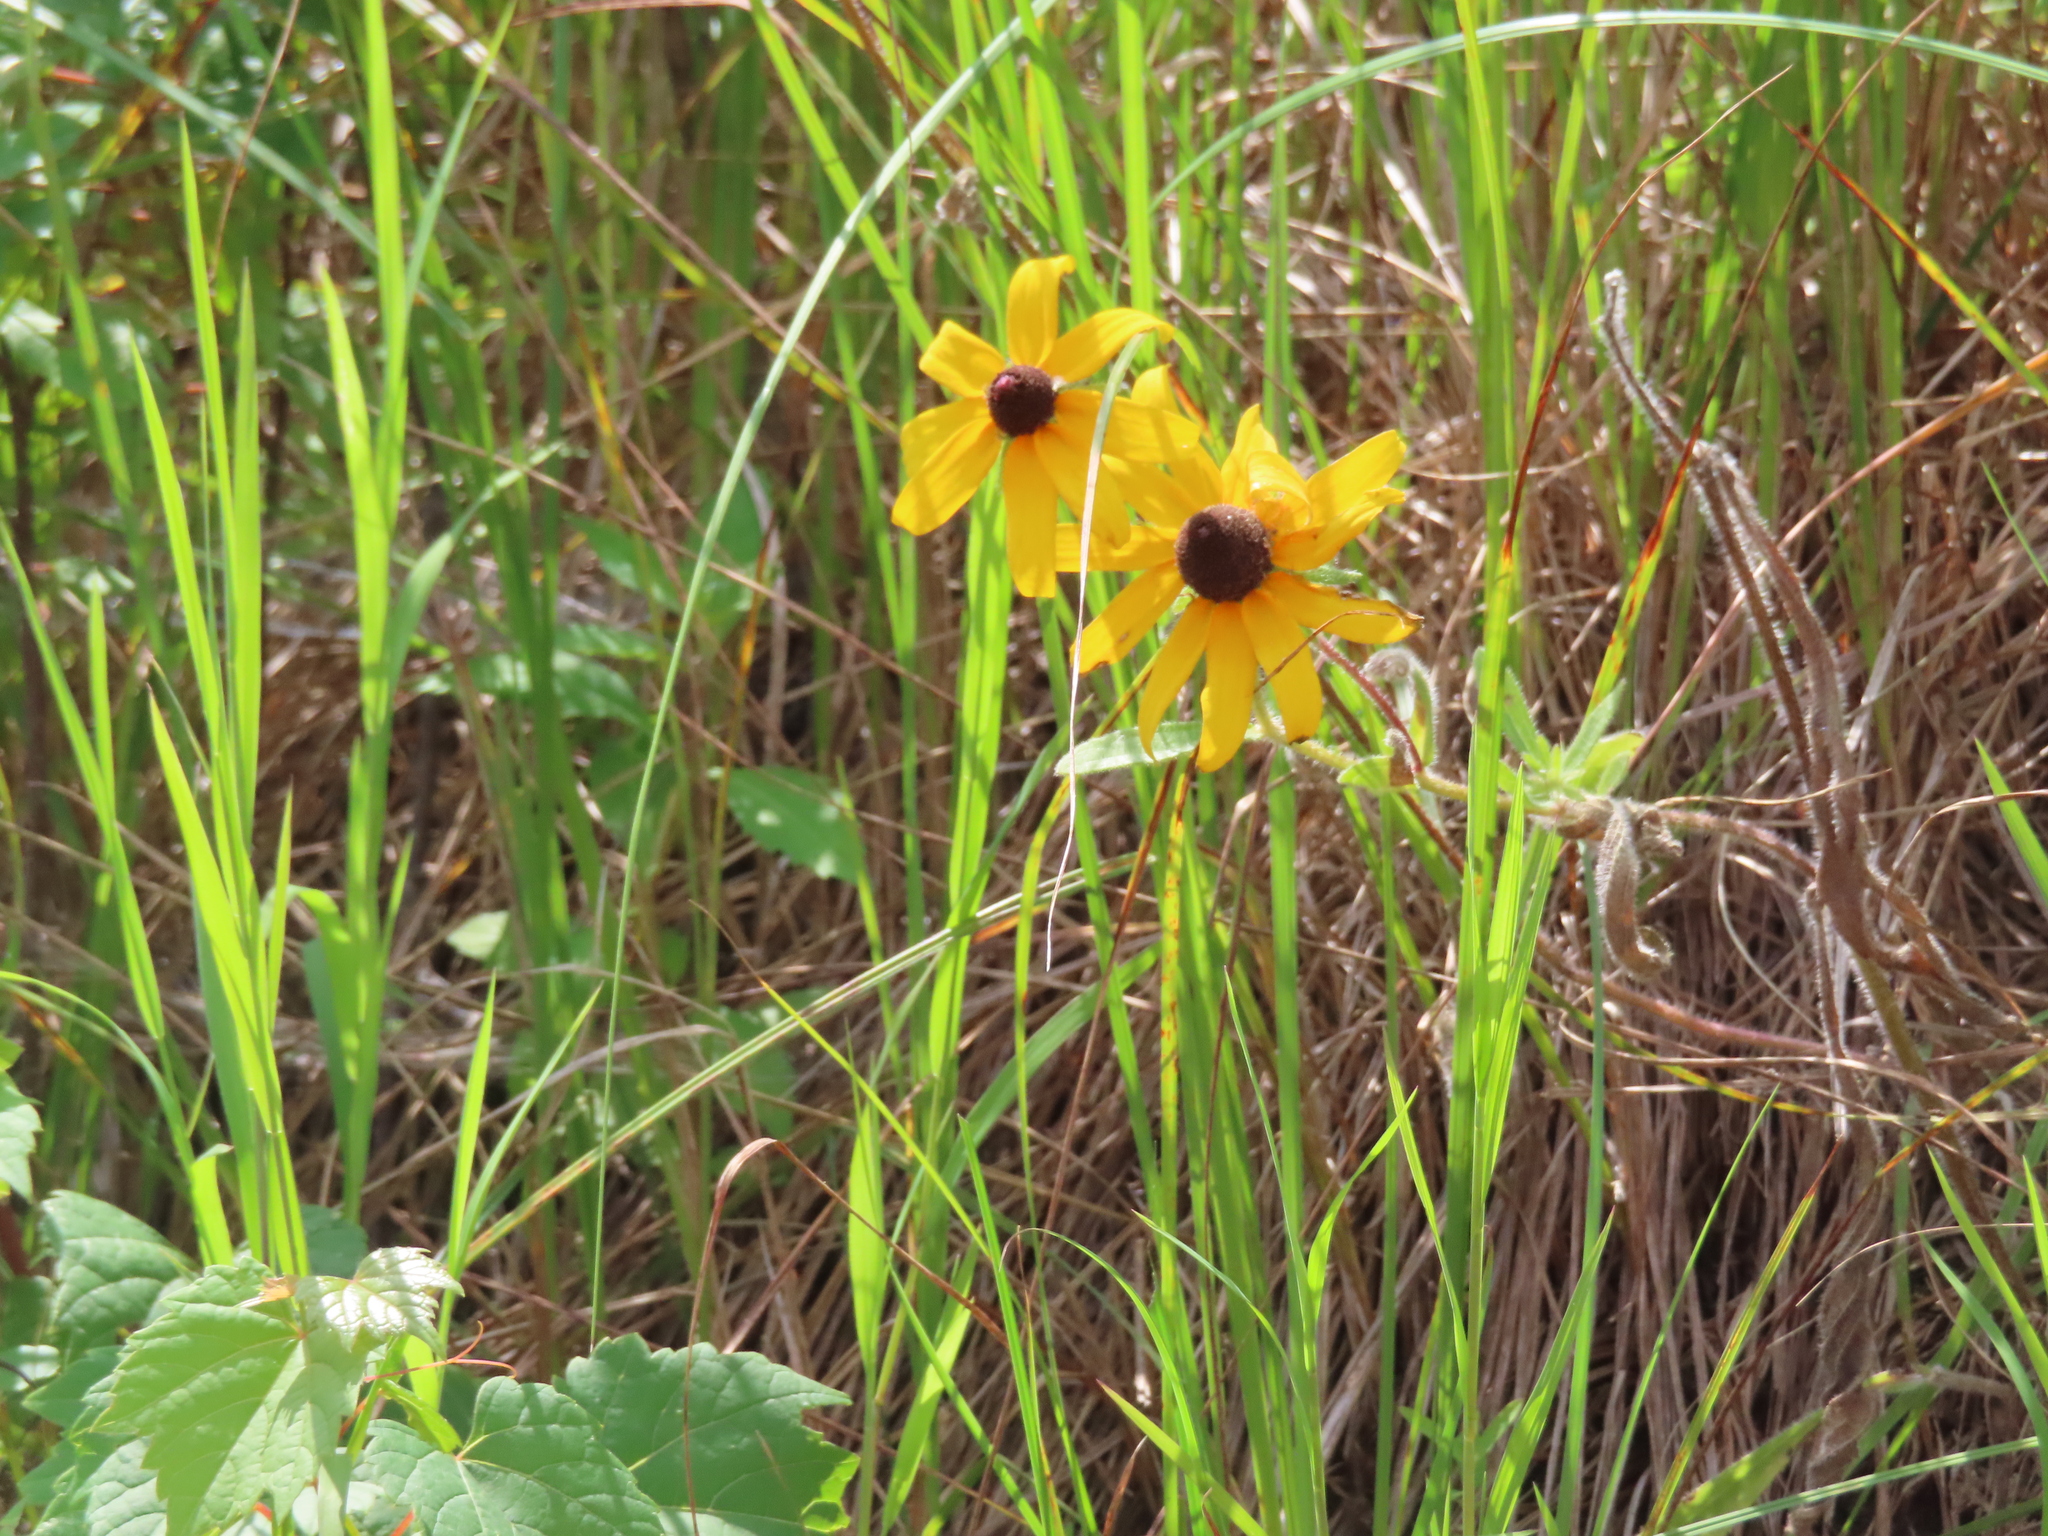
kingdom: Plantae
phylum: Tracheophyta
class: Magnoliopsida
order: Asterales
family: Asteraceae
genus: Rudbeckia
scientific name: Rudbeckia hirta
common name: Black-eyed-susan
